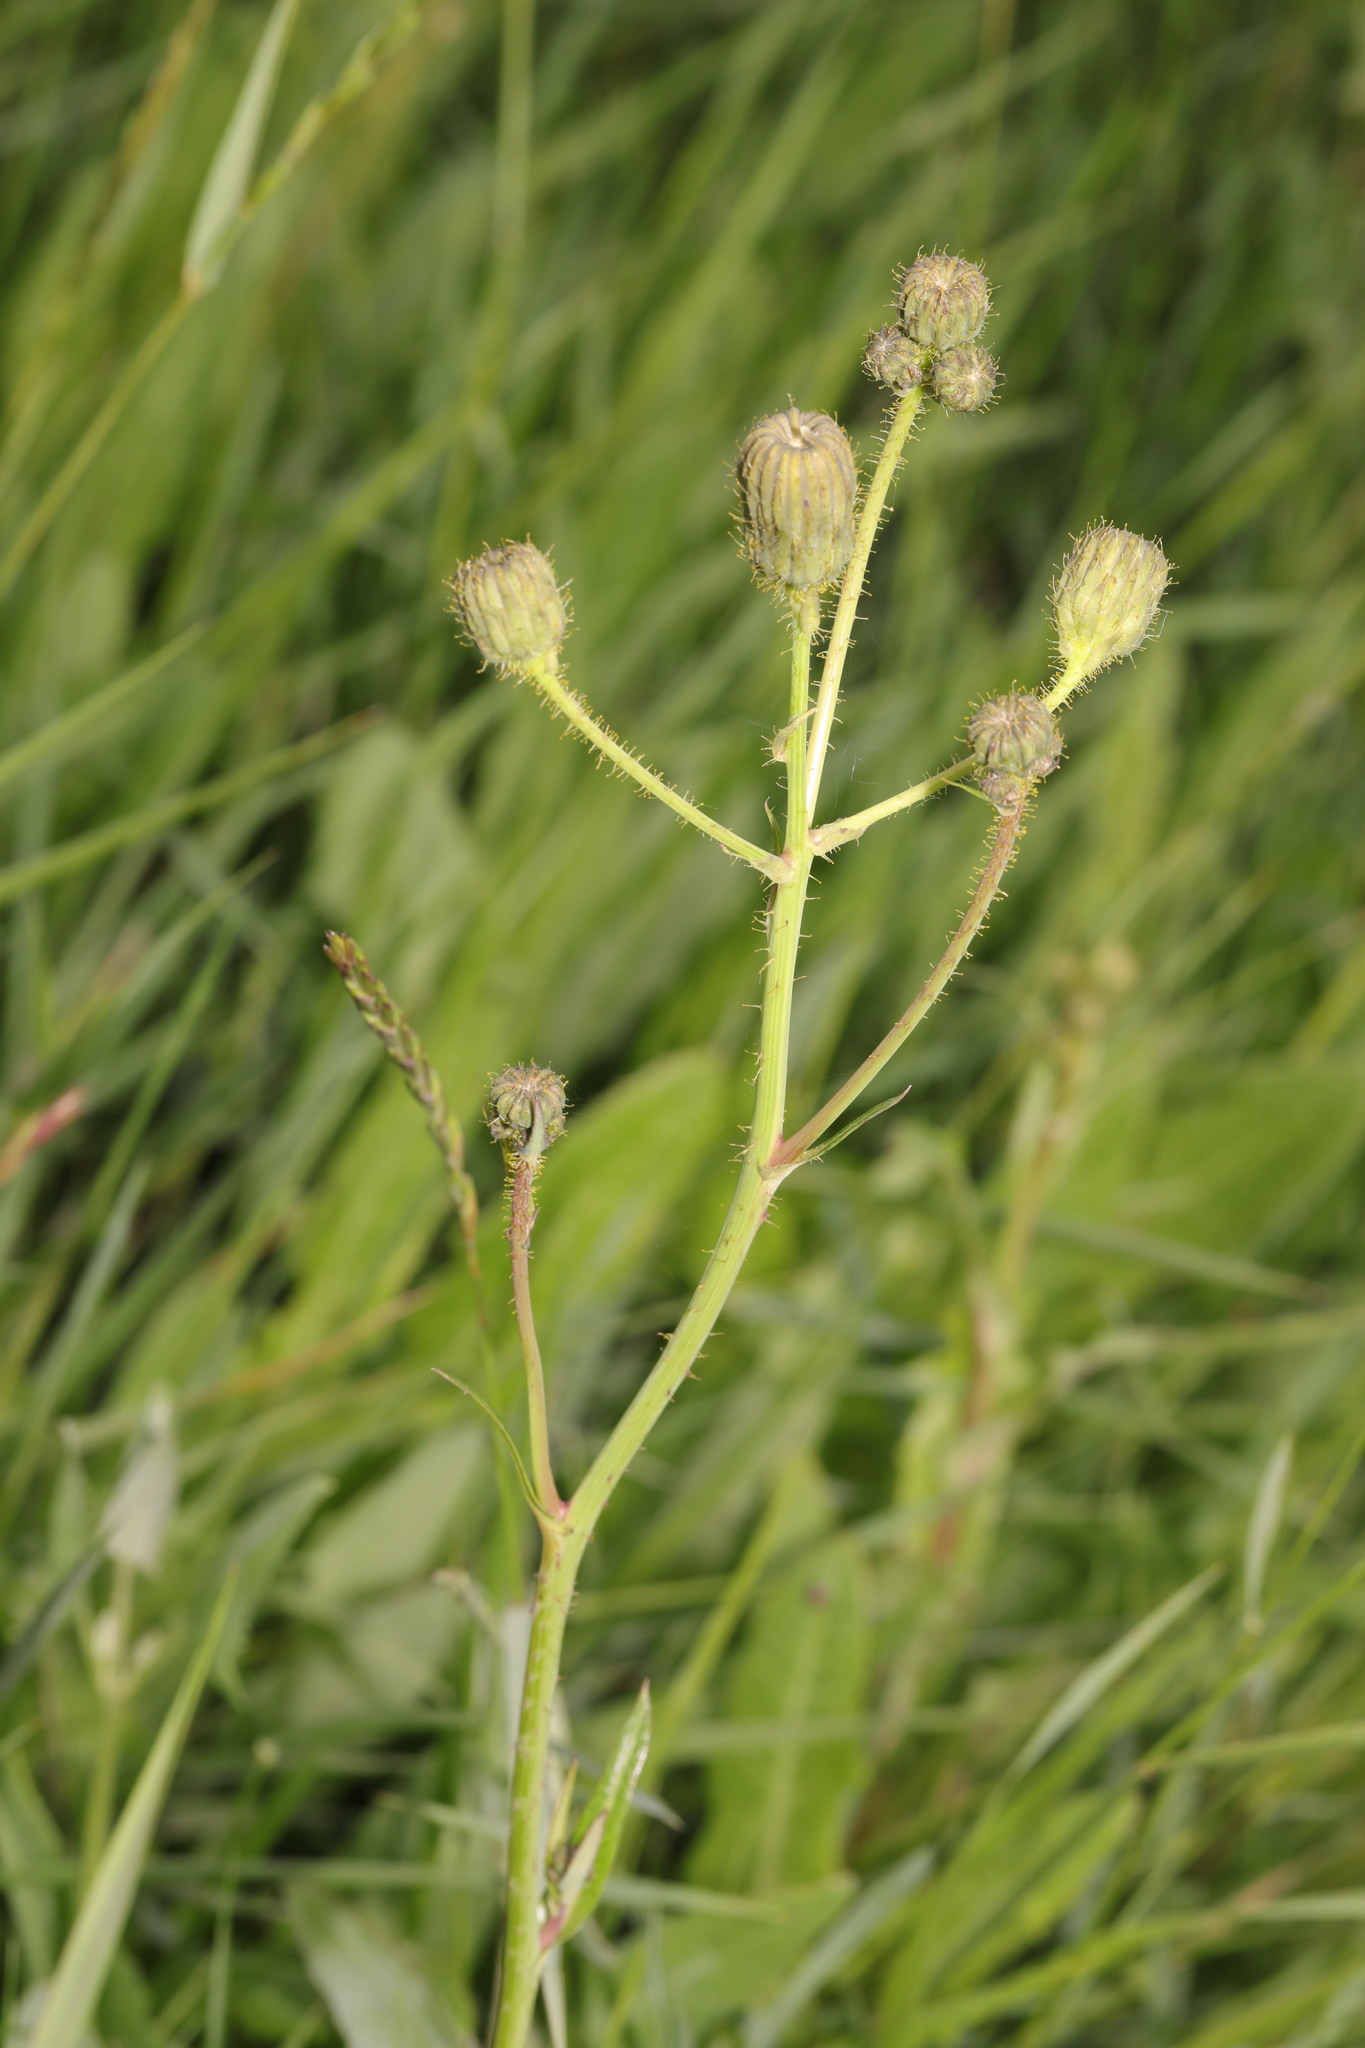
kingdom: Plantae
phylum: Tracheophyta
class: Magnoliopsida
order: Asterales
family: Asteraceae
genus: Sonchus
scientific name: Sonchus arvensis
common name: Perennial sow-thistle
